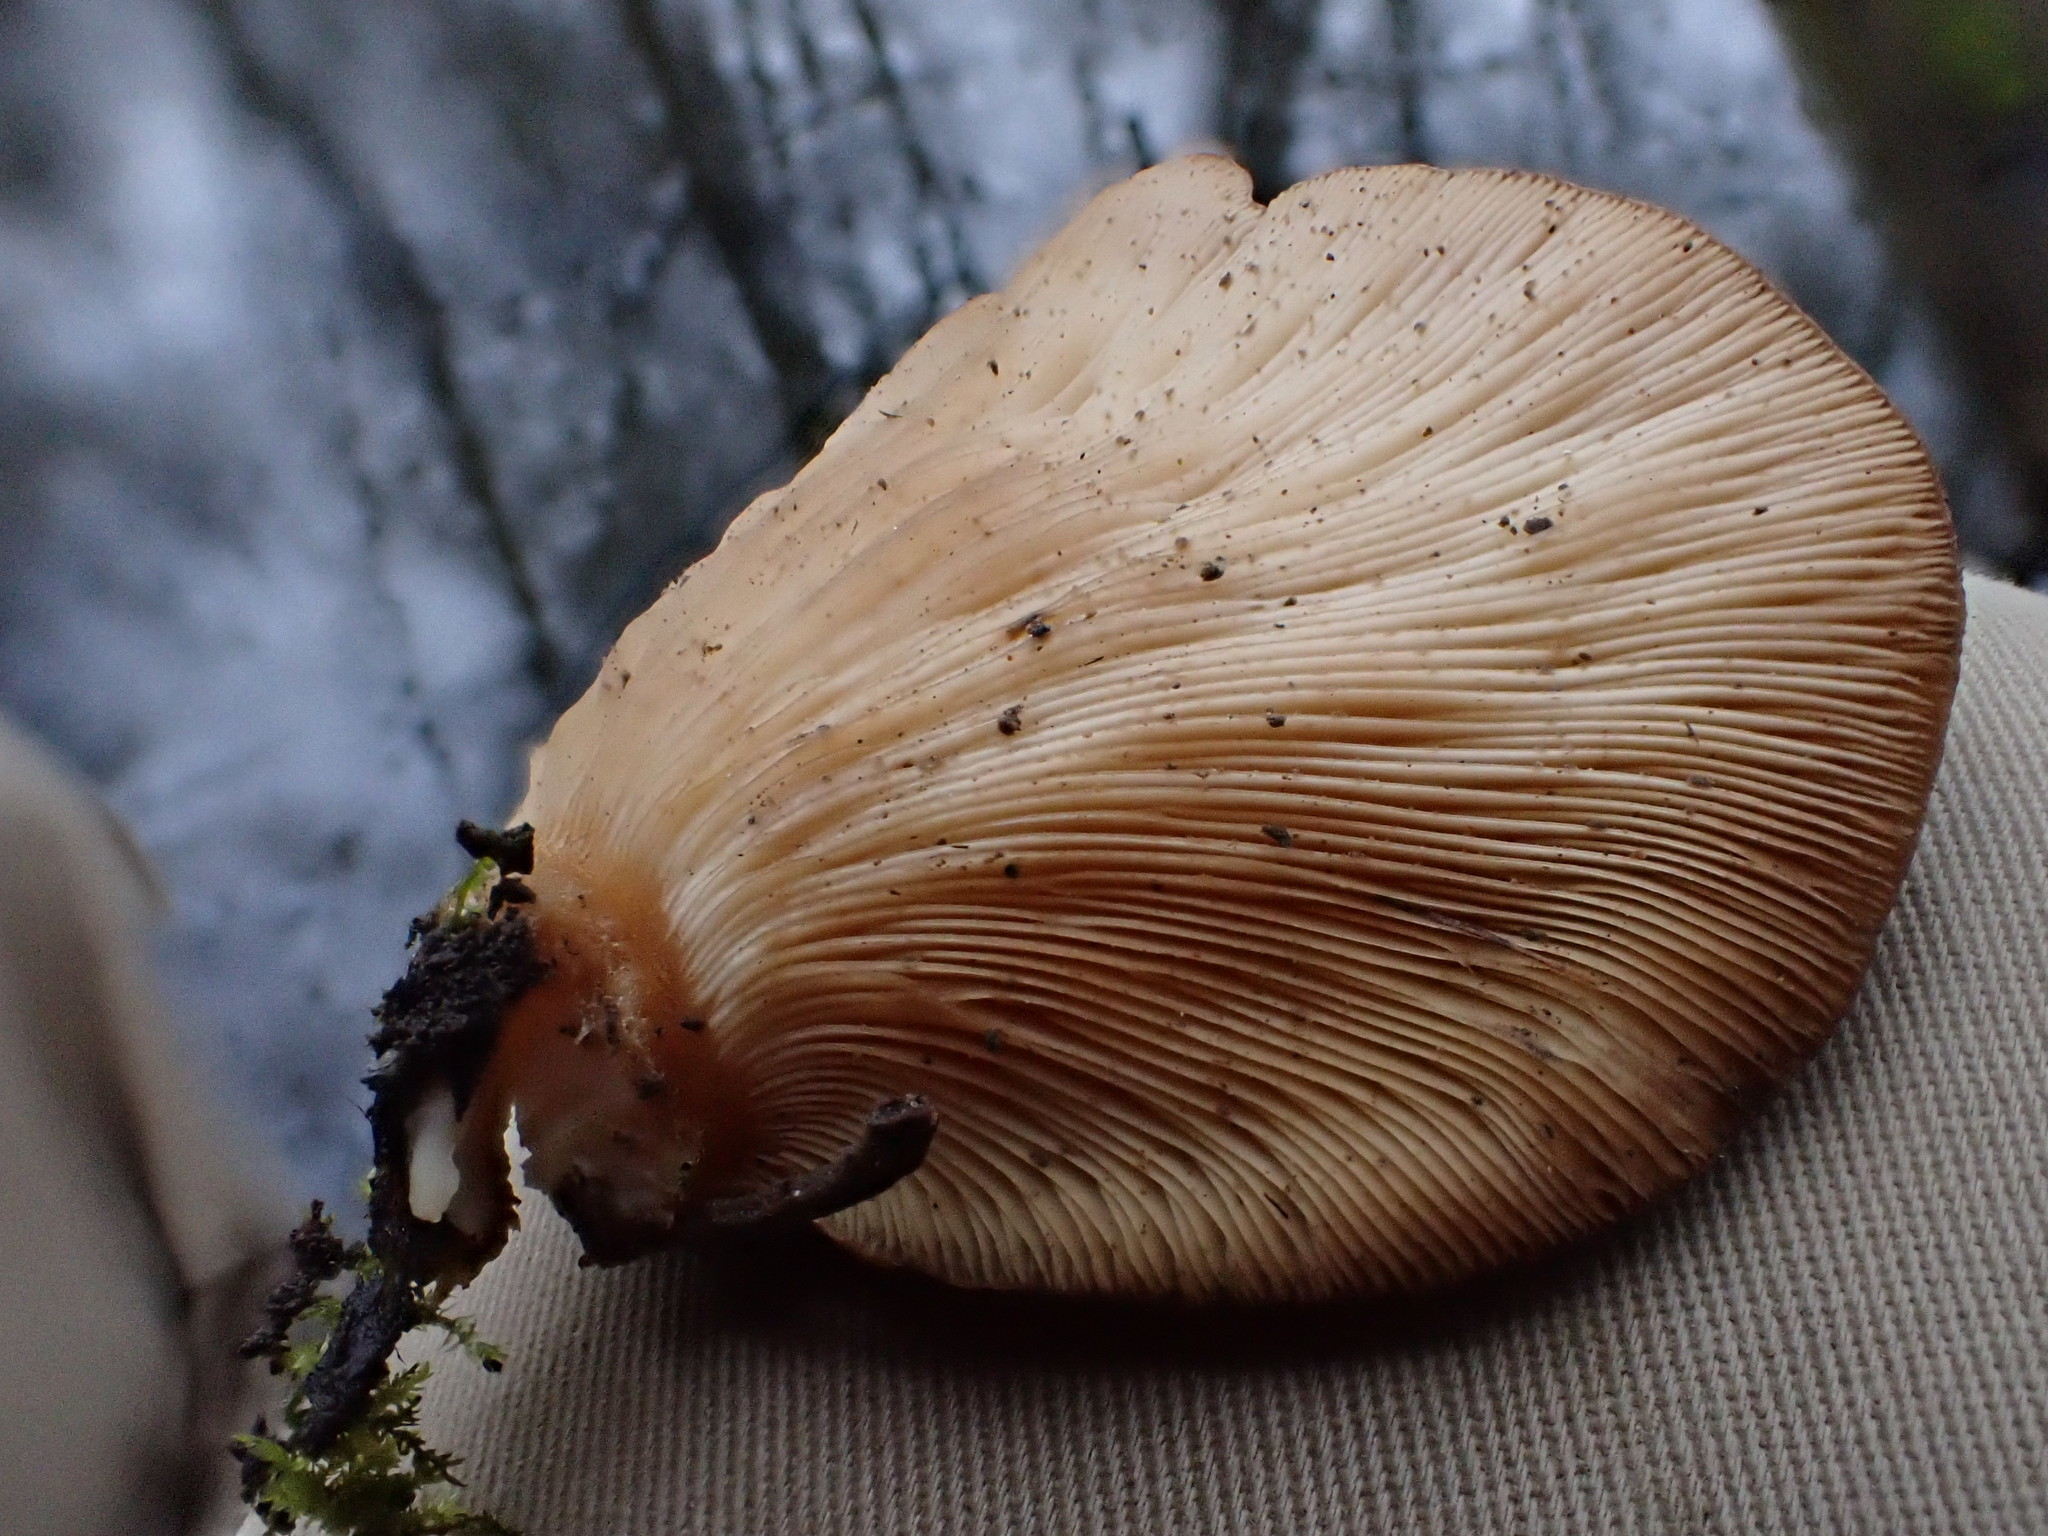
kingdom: Fungi
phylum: Basidiomycota
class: Agaricomycetes
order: Agaricales
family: Sarcomyxaceae
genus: Sarcomyxa
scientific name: Sarcomyxa serotina
